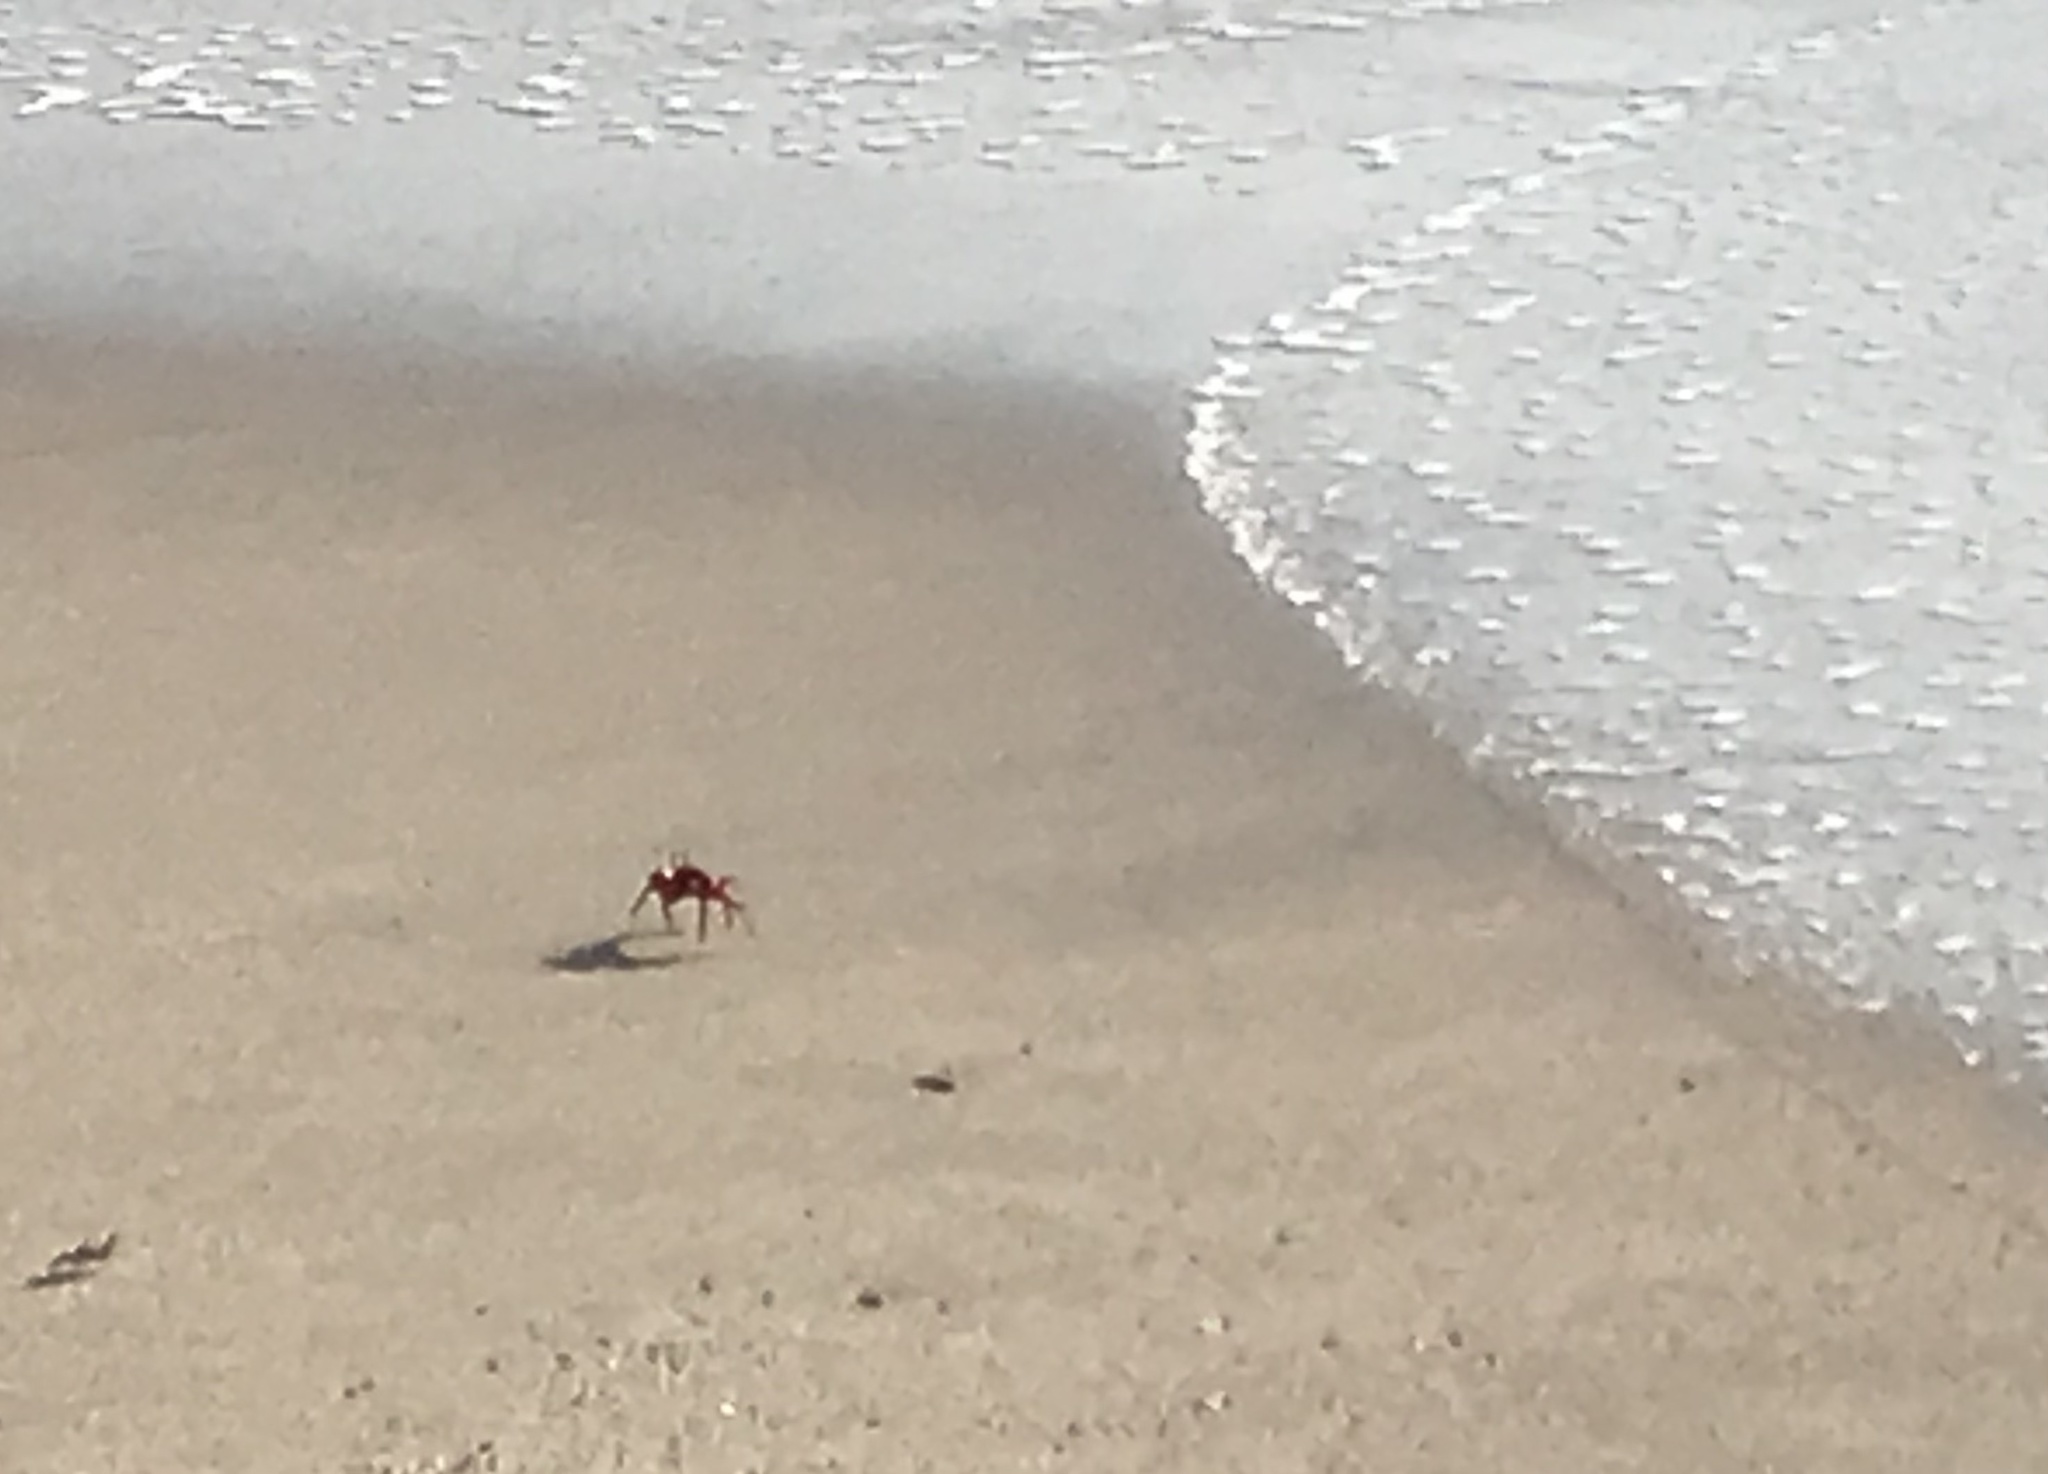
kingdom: Animalia
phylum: Arthropoda
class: Malacostraca
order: Decapoda
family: Ocypodidae
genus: Ocypode
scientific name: Ocypode macrocera
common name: Red ghost crab
